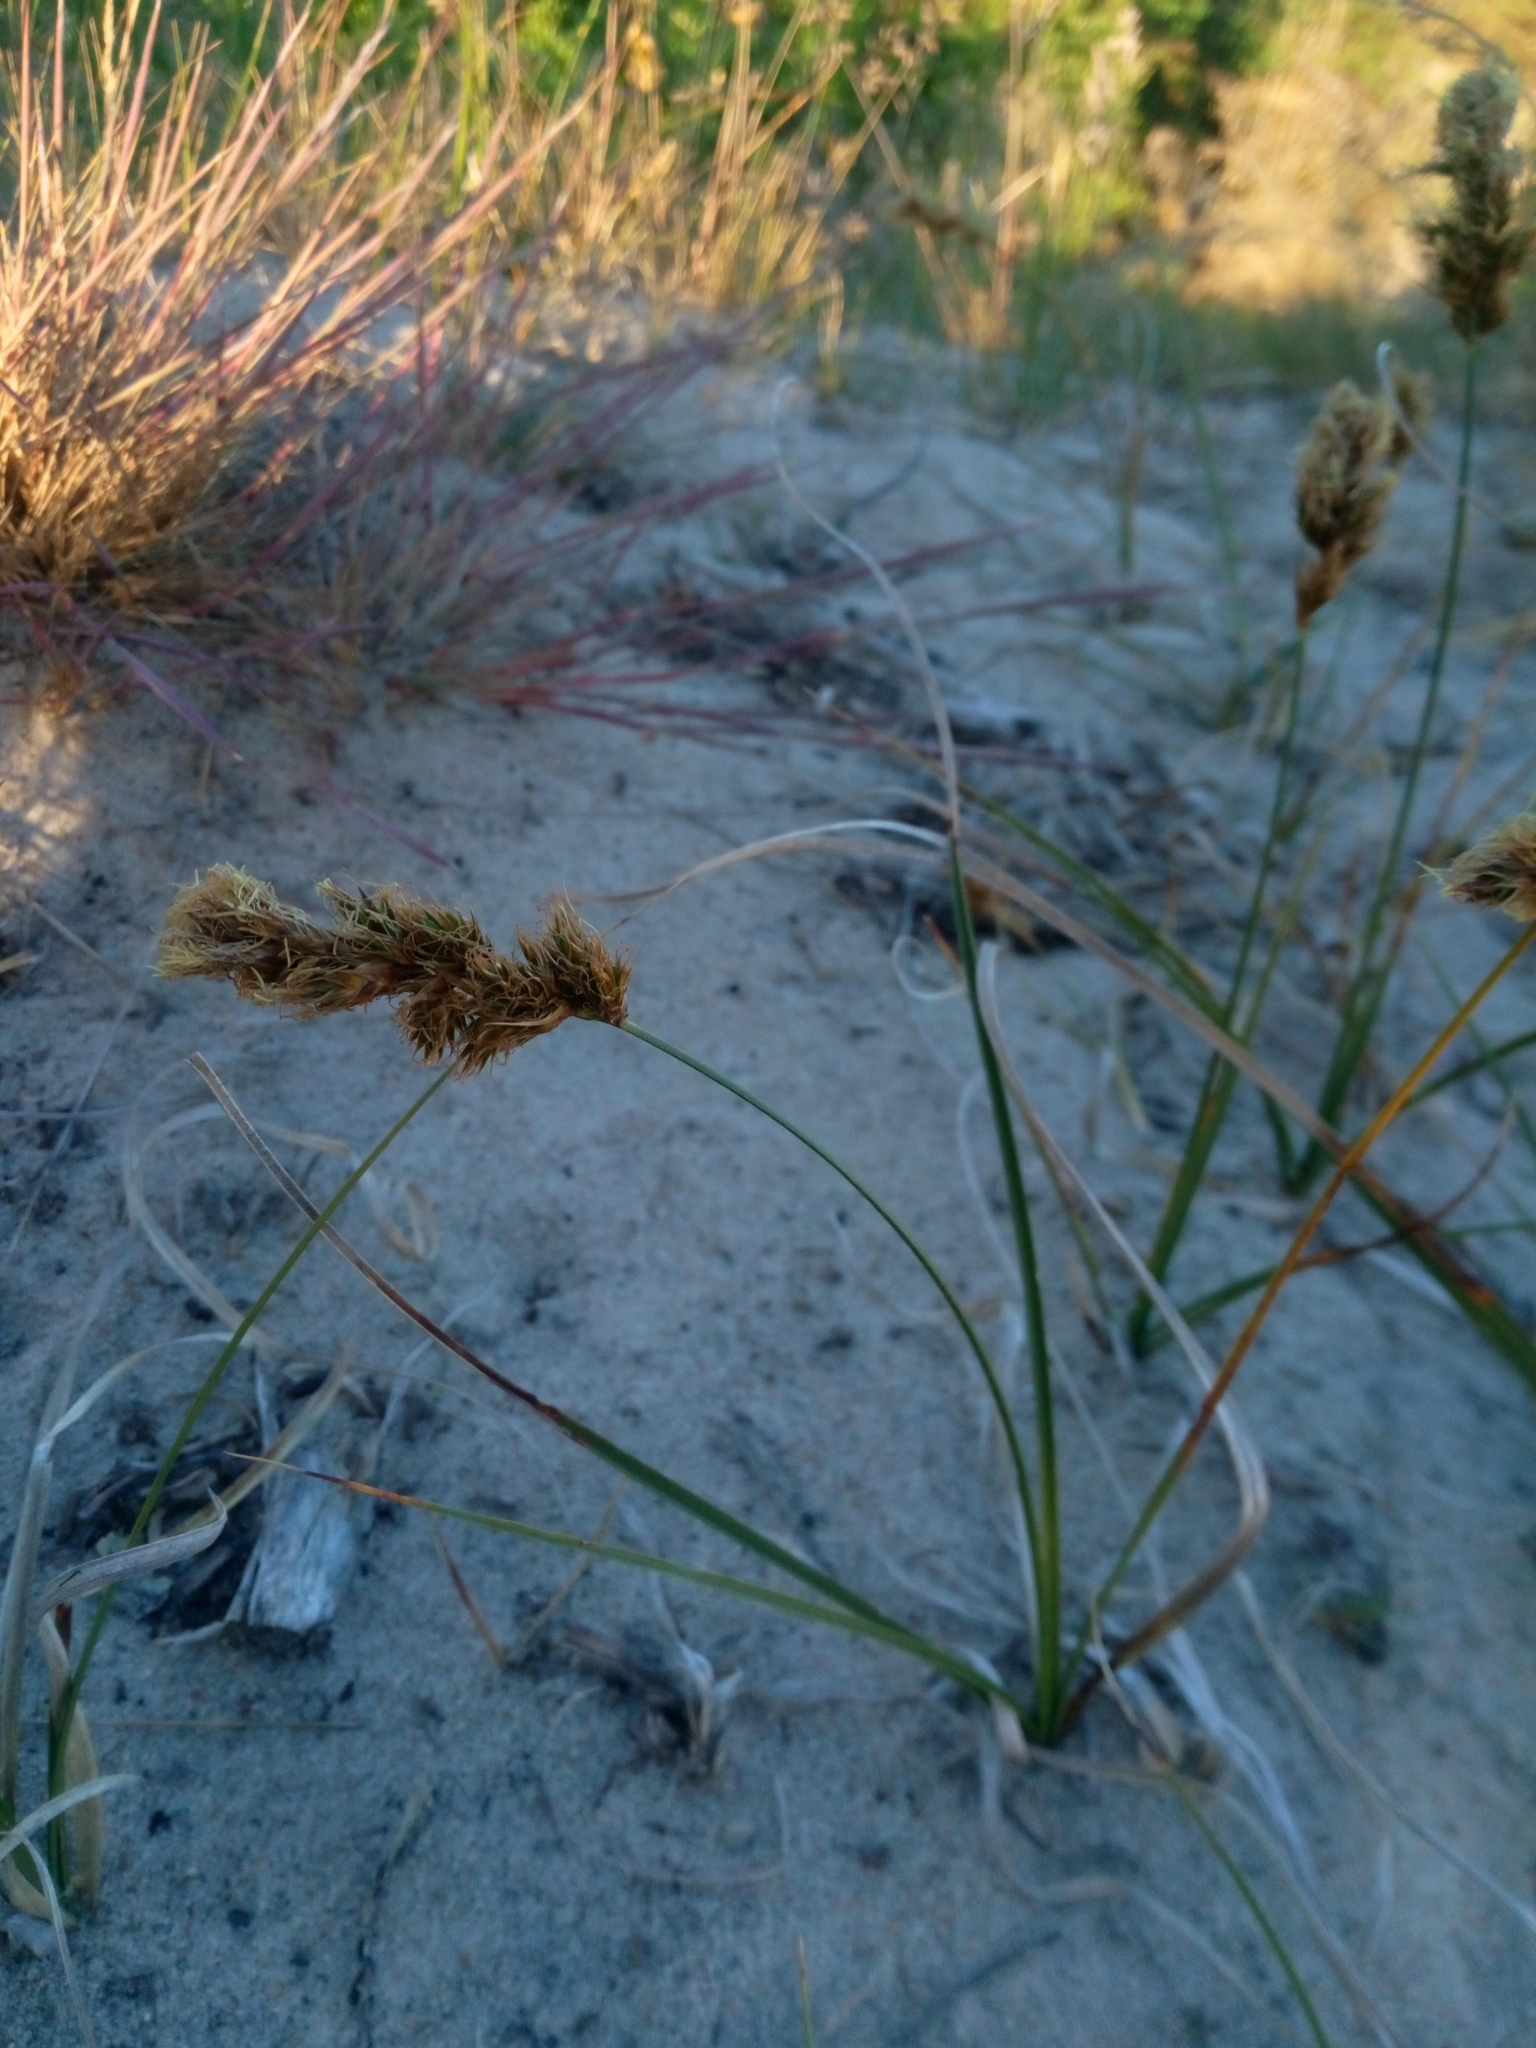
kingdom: Plantae
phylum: Tracheophyta
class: Liliopsida
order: Poales
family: Cyperaceae
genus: Carex
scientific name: Carex arenaria
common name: Sand sedge
